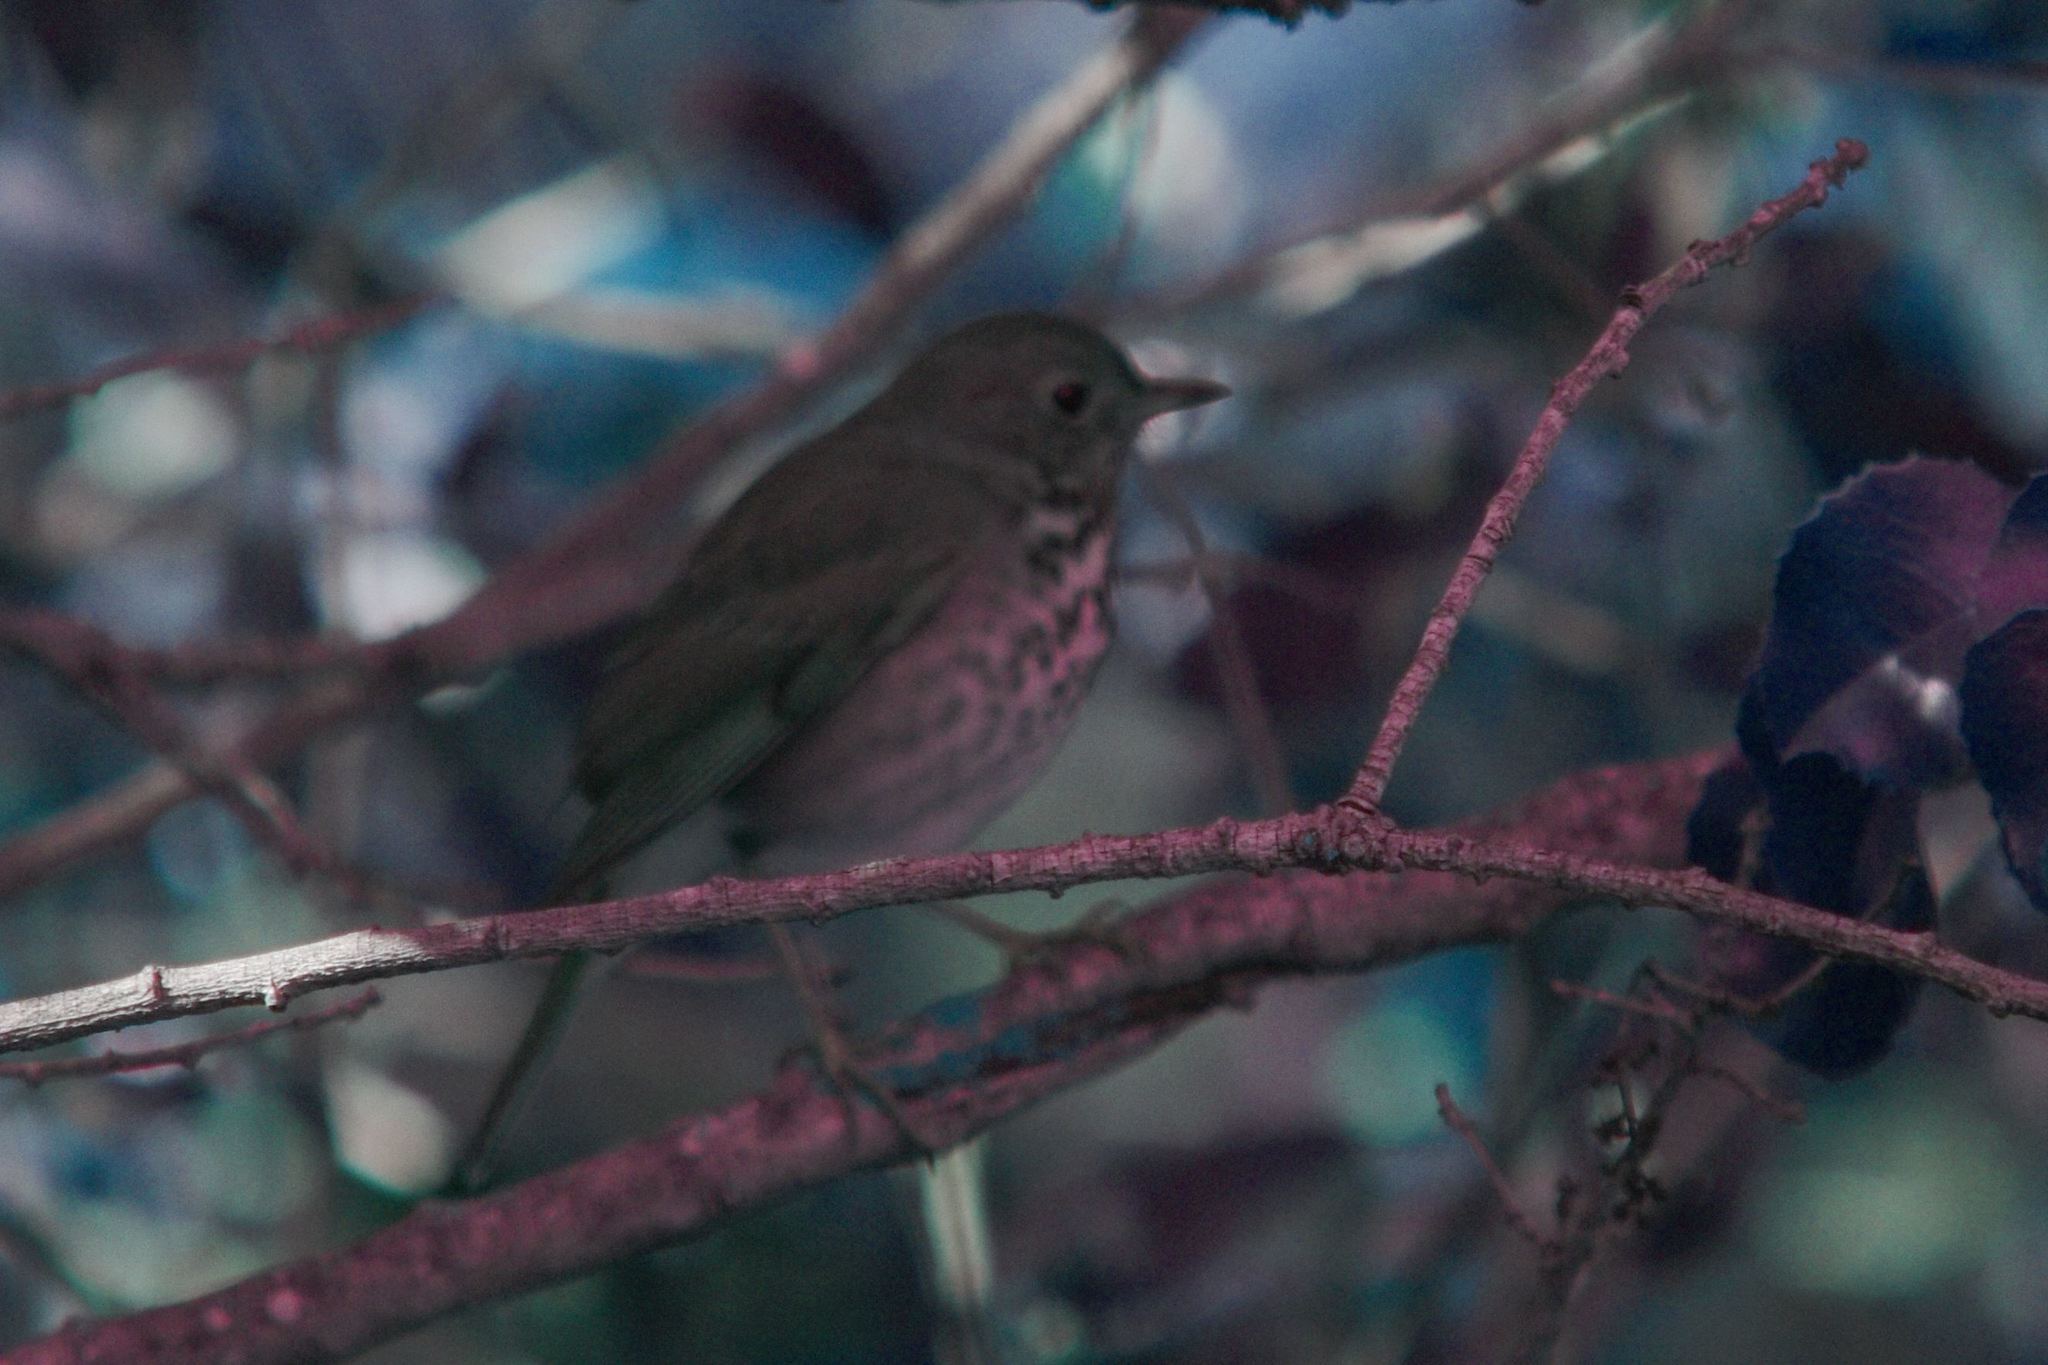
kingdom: Animalia
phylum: Chordata
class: Aves
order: Passeriformes
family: Turdidae
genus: Catharus
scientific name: Catharus guttatus
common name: Hermit thrush
